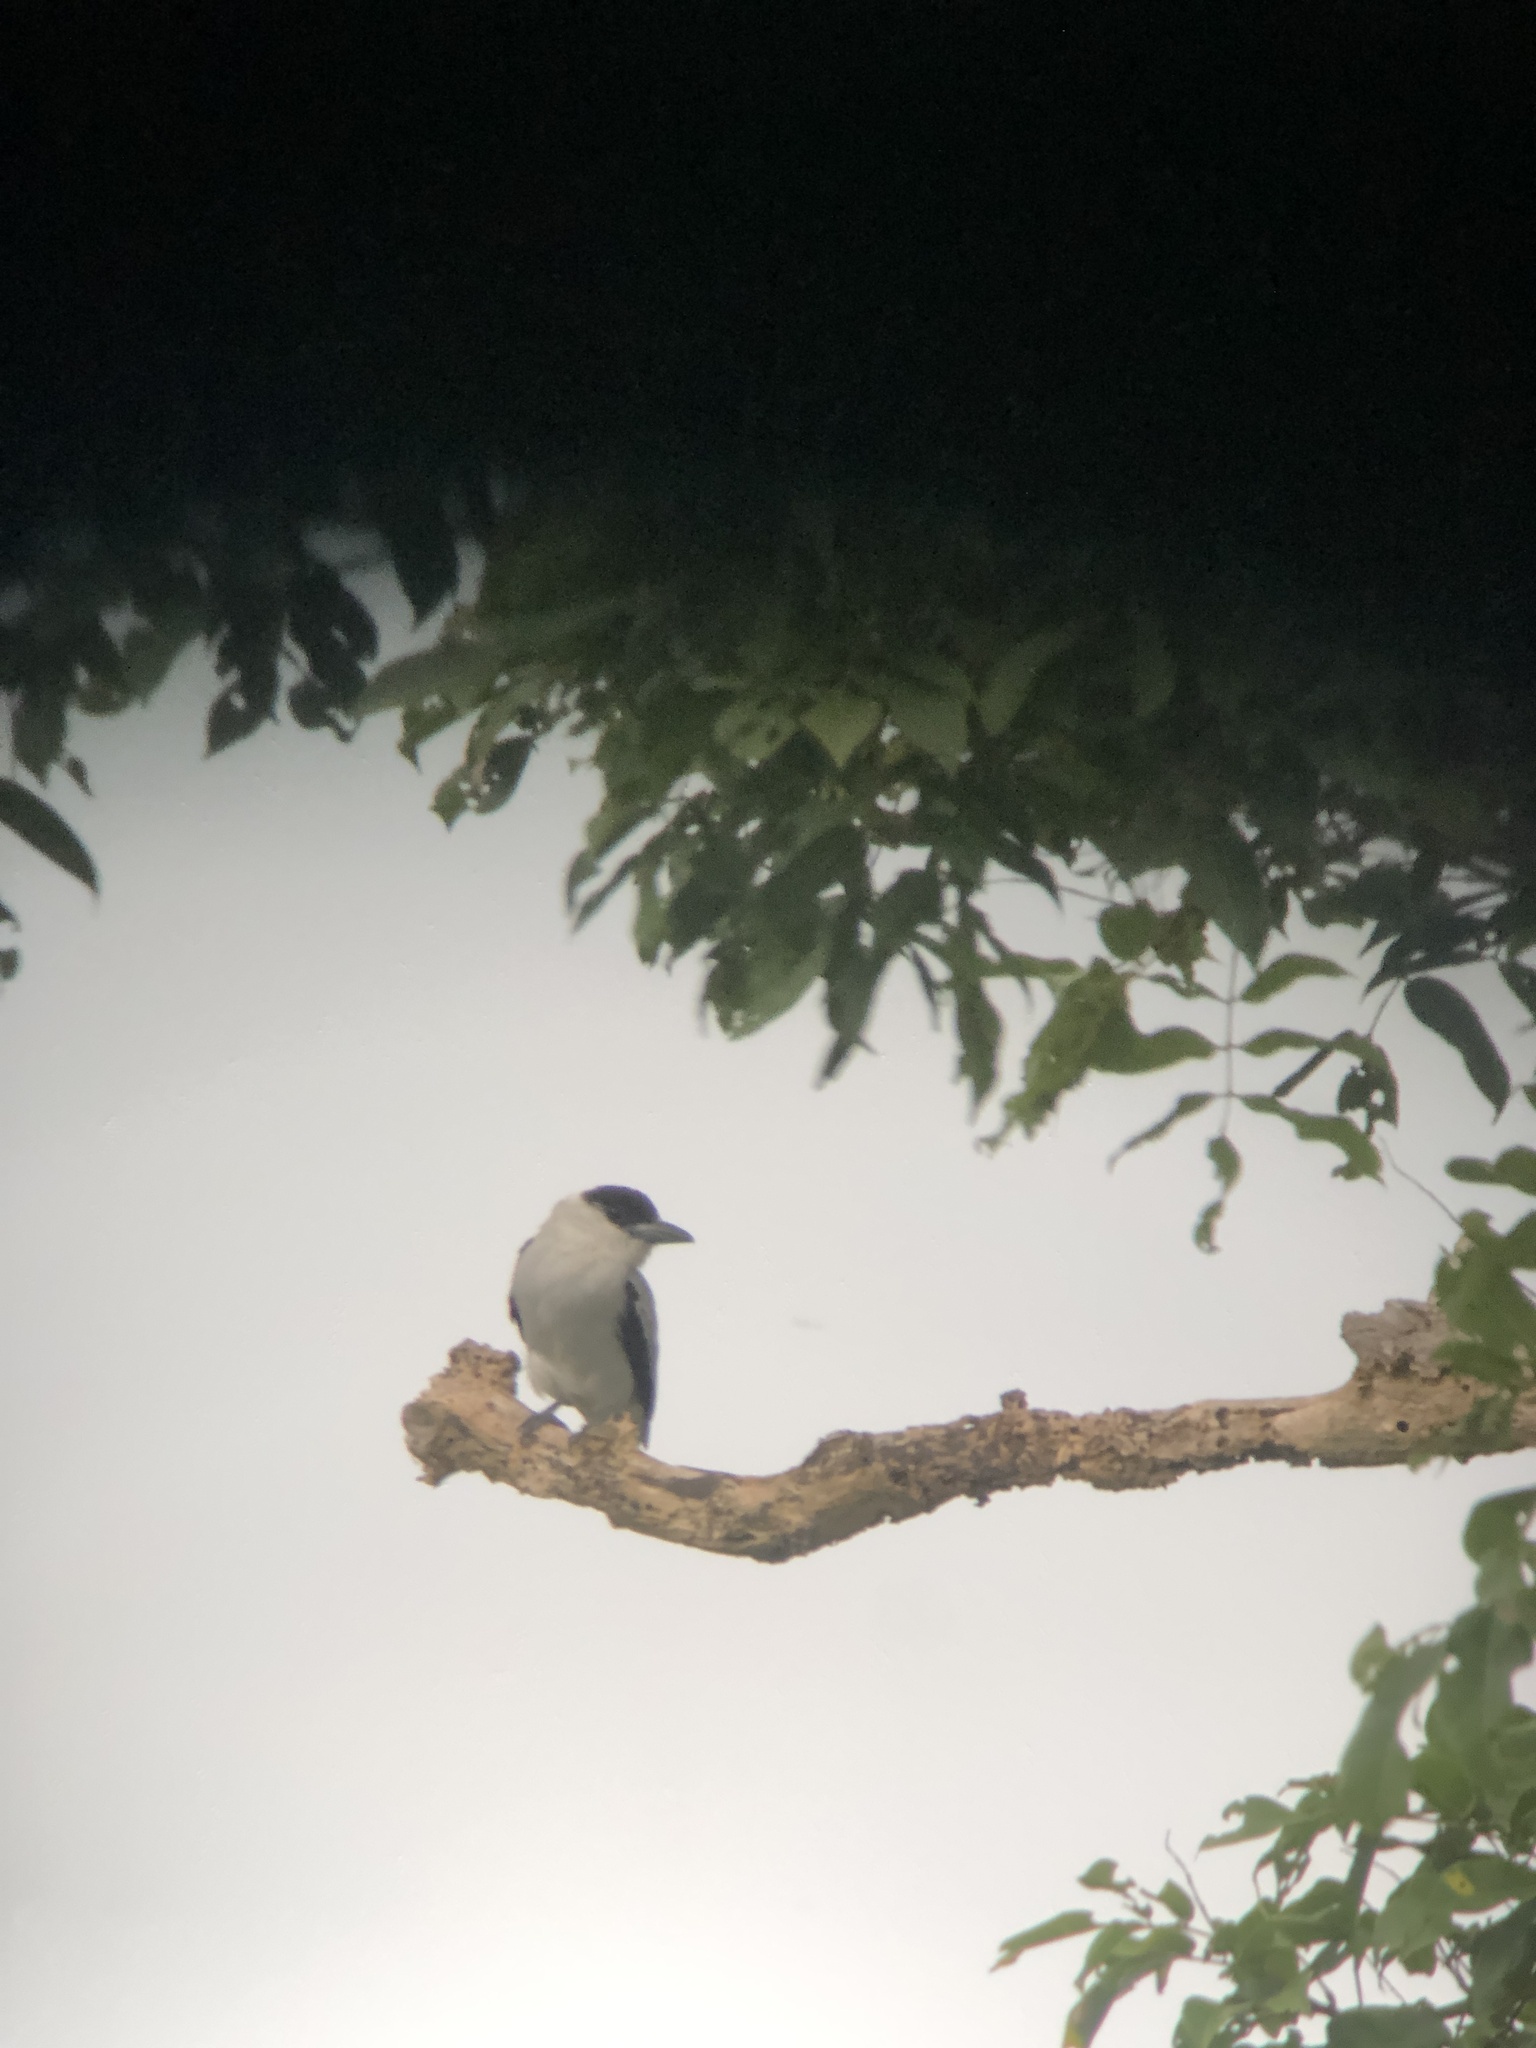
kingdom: Animalia
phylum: Chordata
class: Aves
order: Passeriformes
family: Cotingidae
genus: Tityra
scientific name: Tityra inquisitor
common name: Black-crowned tityra
